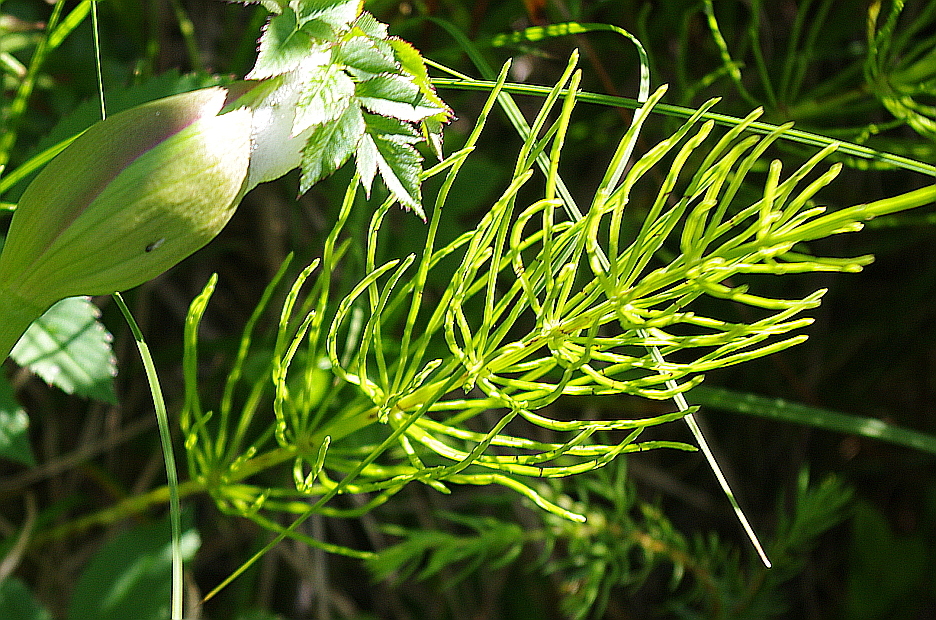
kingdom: Plantae
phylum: Tracheophyta
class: Polypodiopsida
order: Equisetales
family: Equisetaceae
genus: Equisetum
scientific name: Equisetum arvense
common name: Field horsetail
